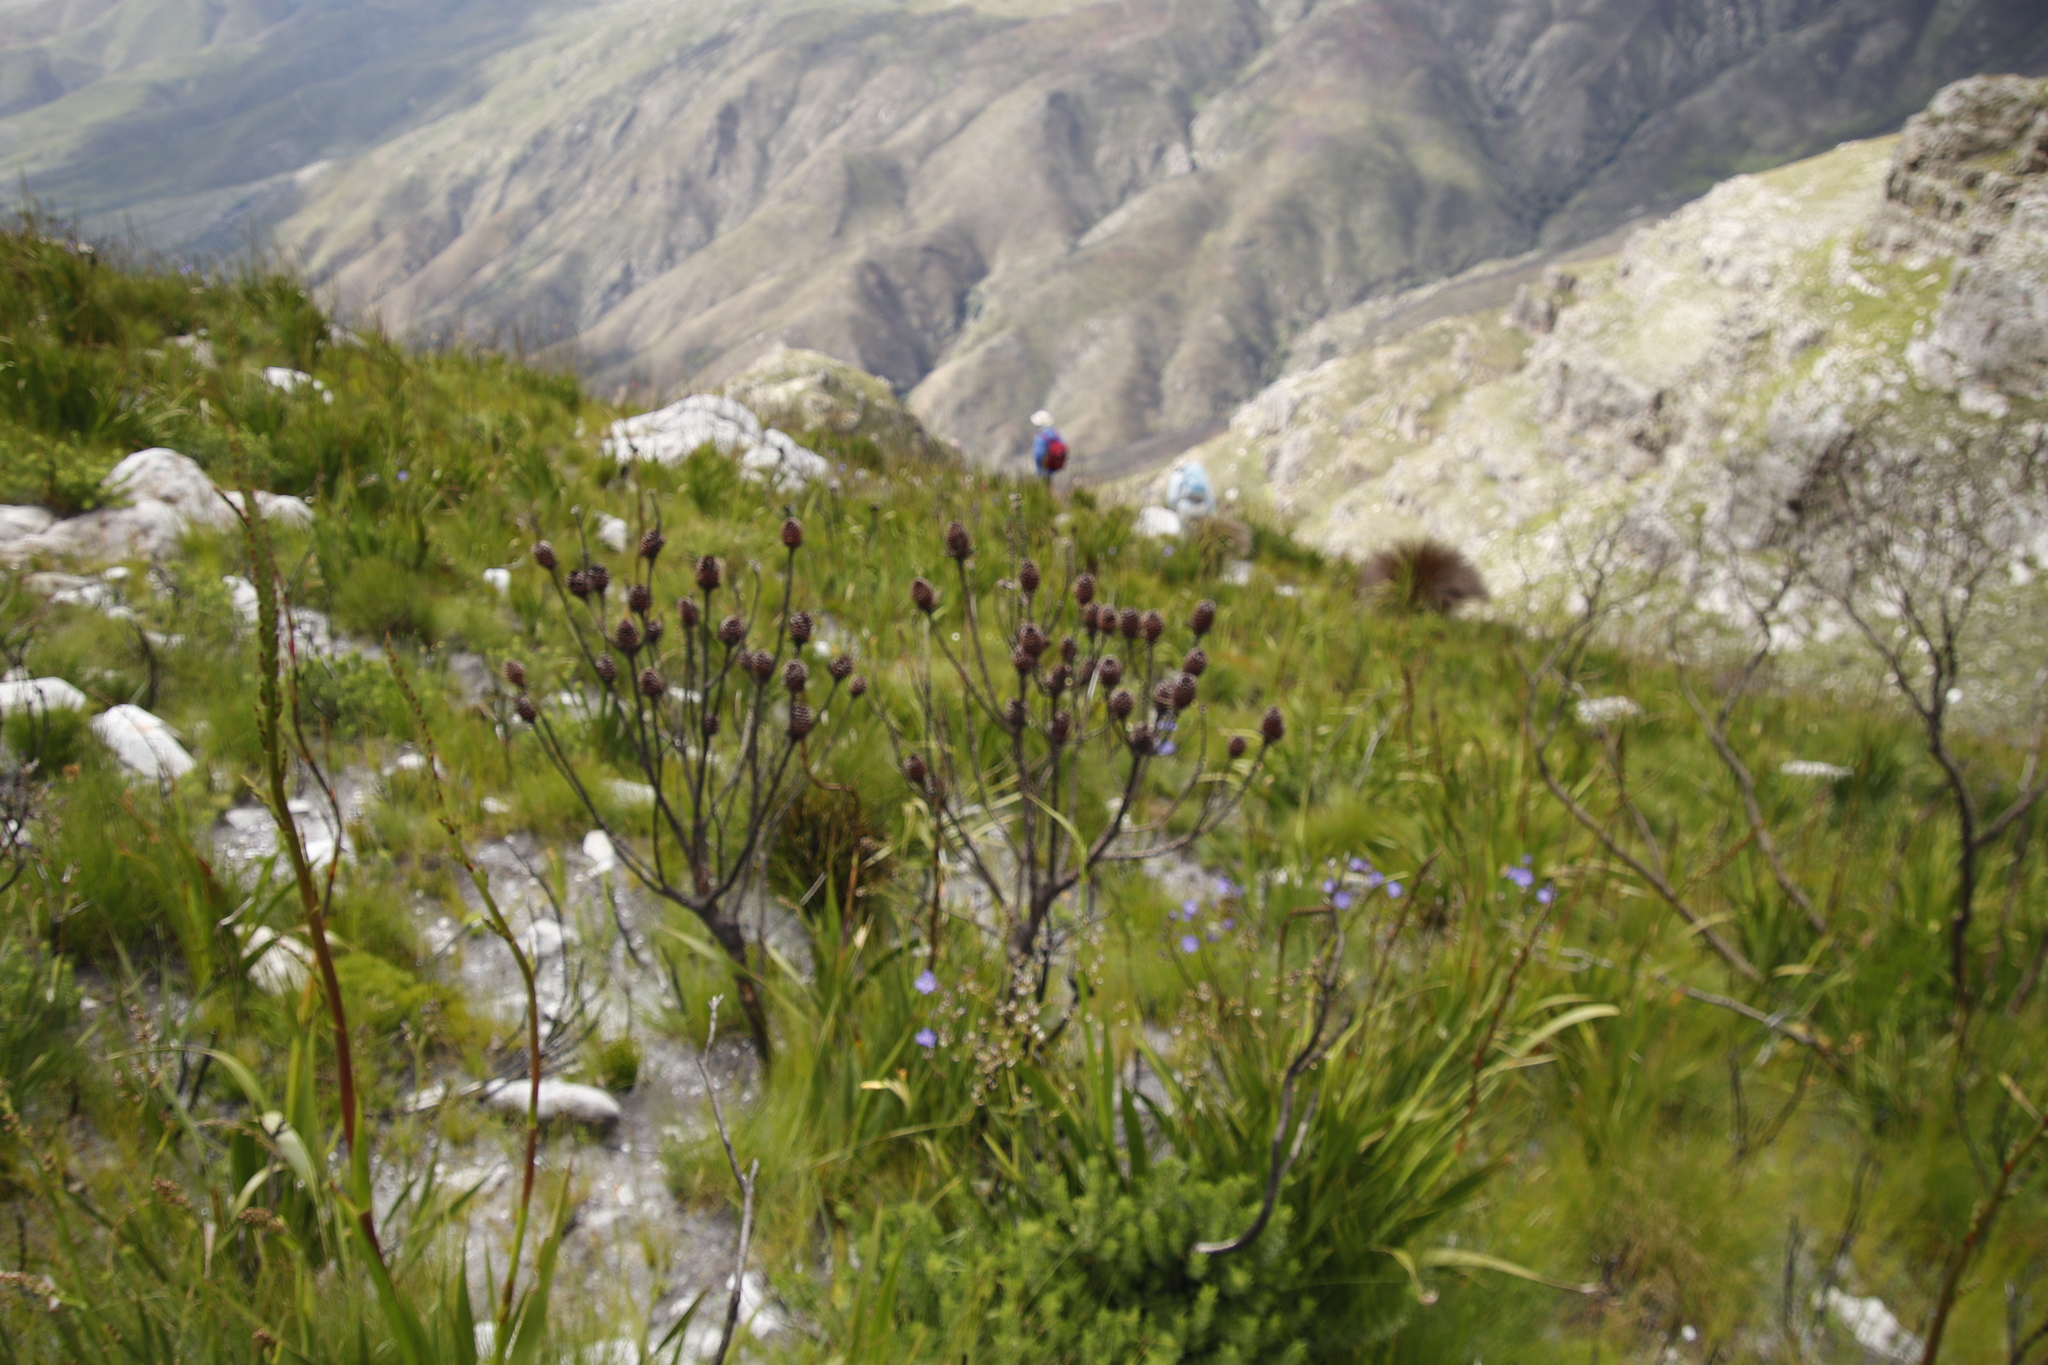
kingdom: Plantae
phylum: Tracheophyta
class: Magnoliopsida
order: Proteales
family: Proteaceae
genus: Leucadendron
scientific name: Leucadendron gandogeri
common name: Broad-leaf conebush
